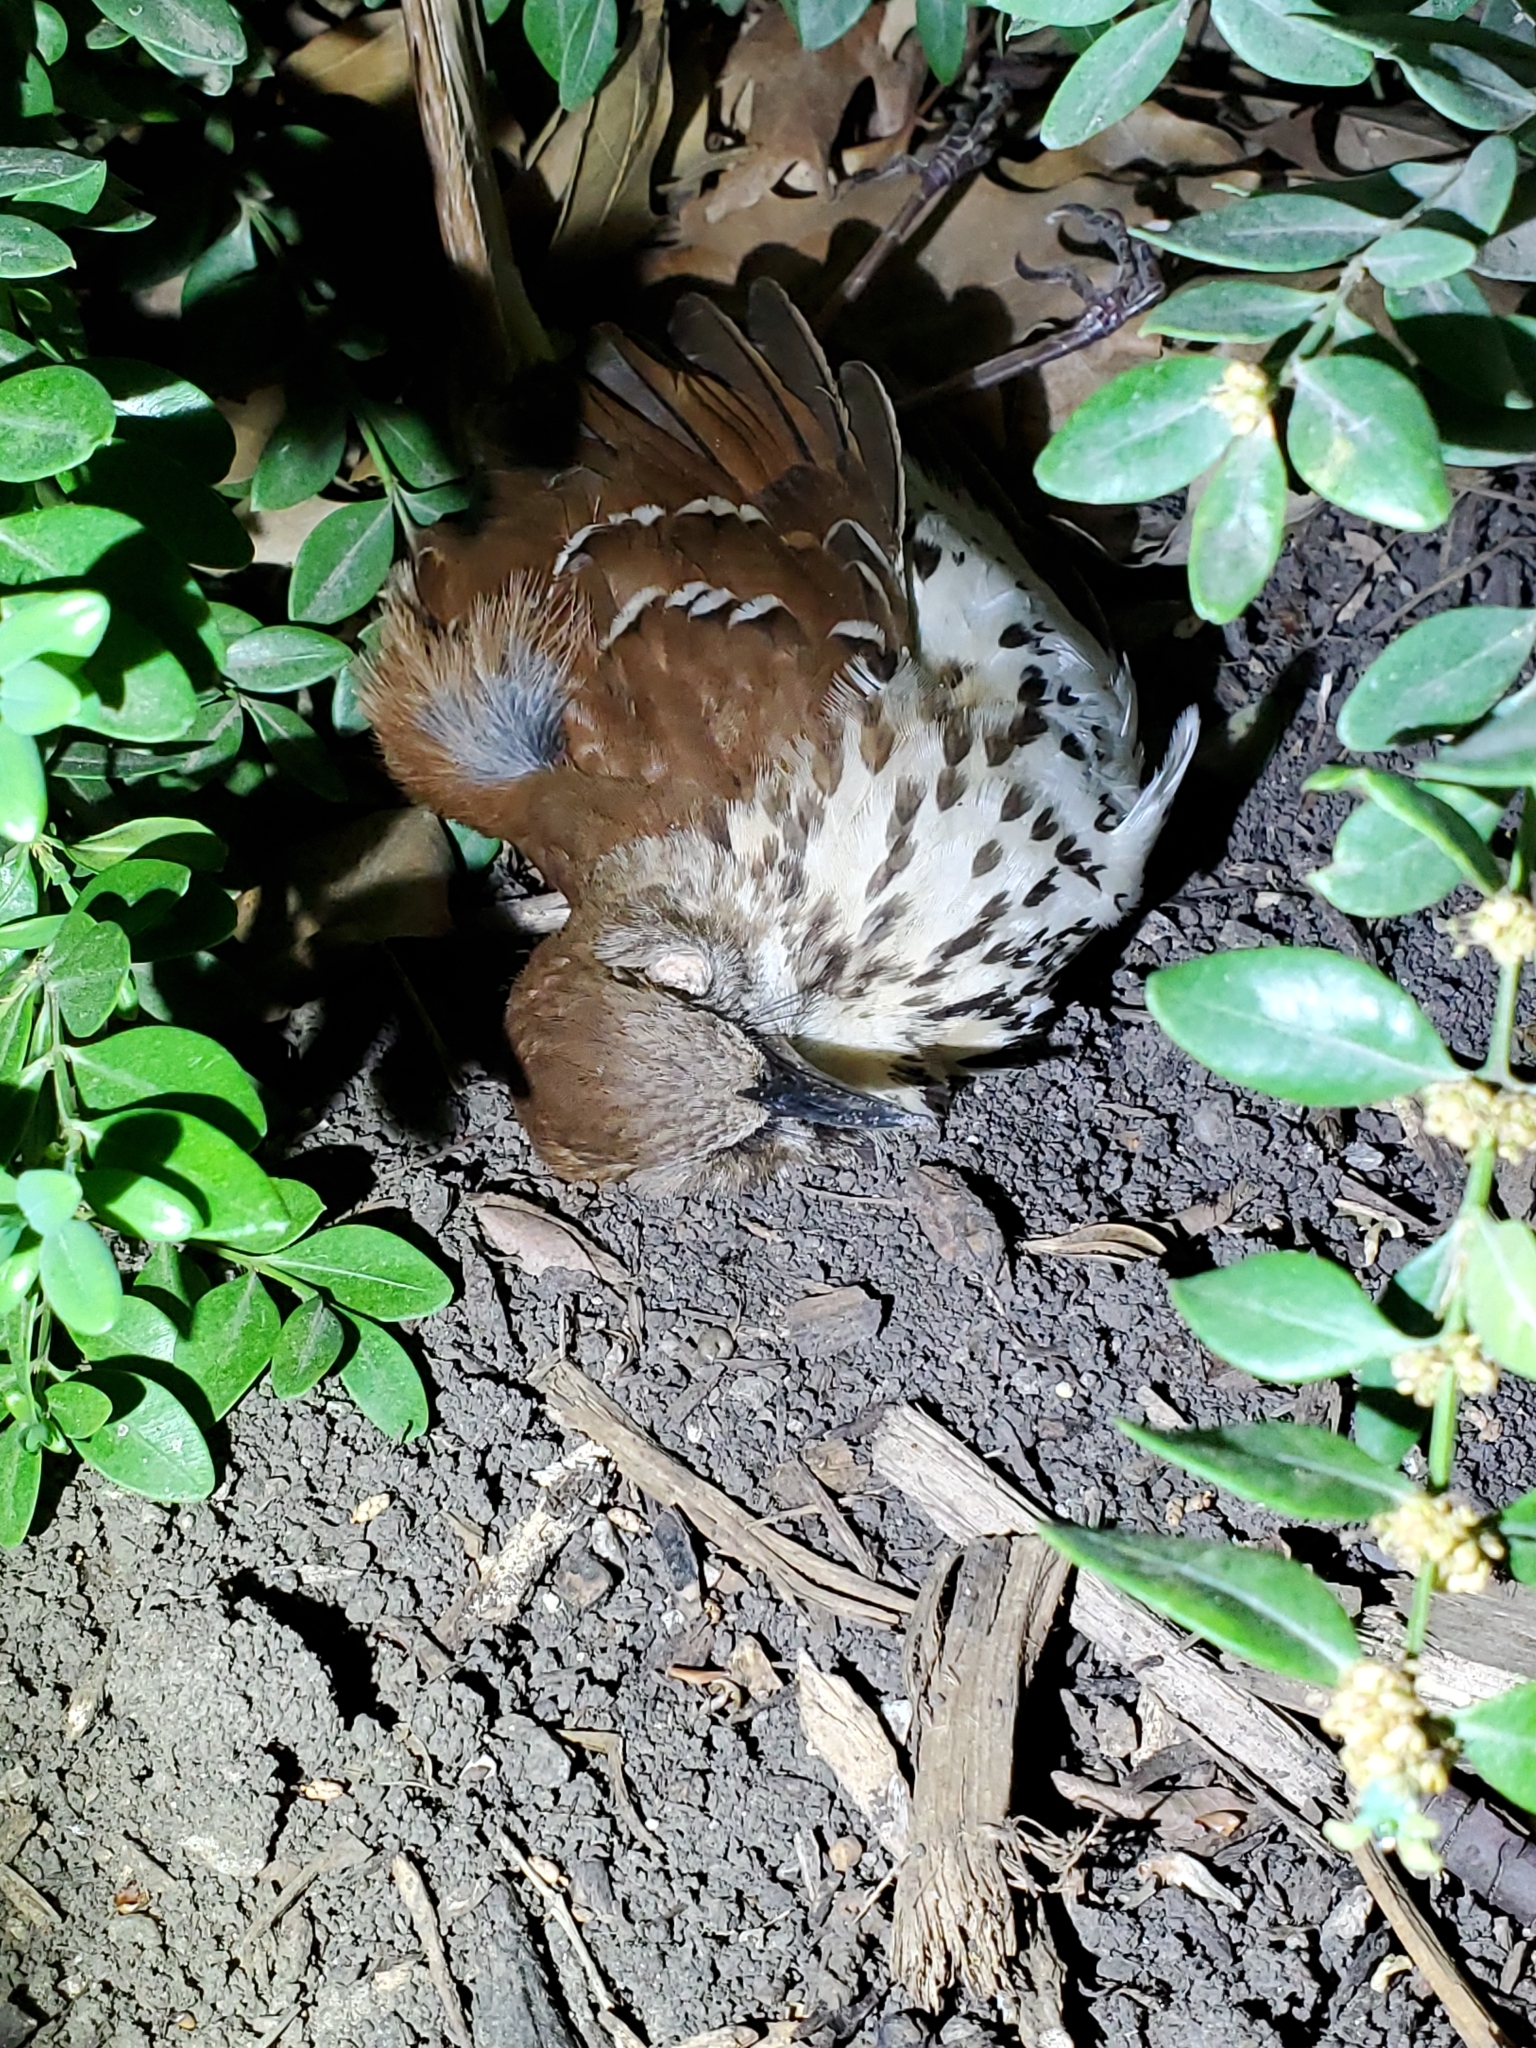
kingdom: Animalia
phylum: Chordata
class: Aves
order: Passeriformes
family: Mimidae
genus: Toxostoma
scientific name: Toxostoma rufum
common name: Brown thrasher
